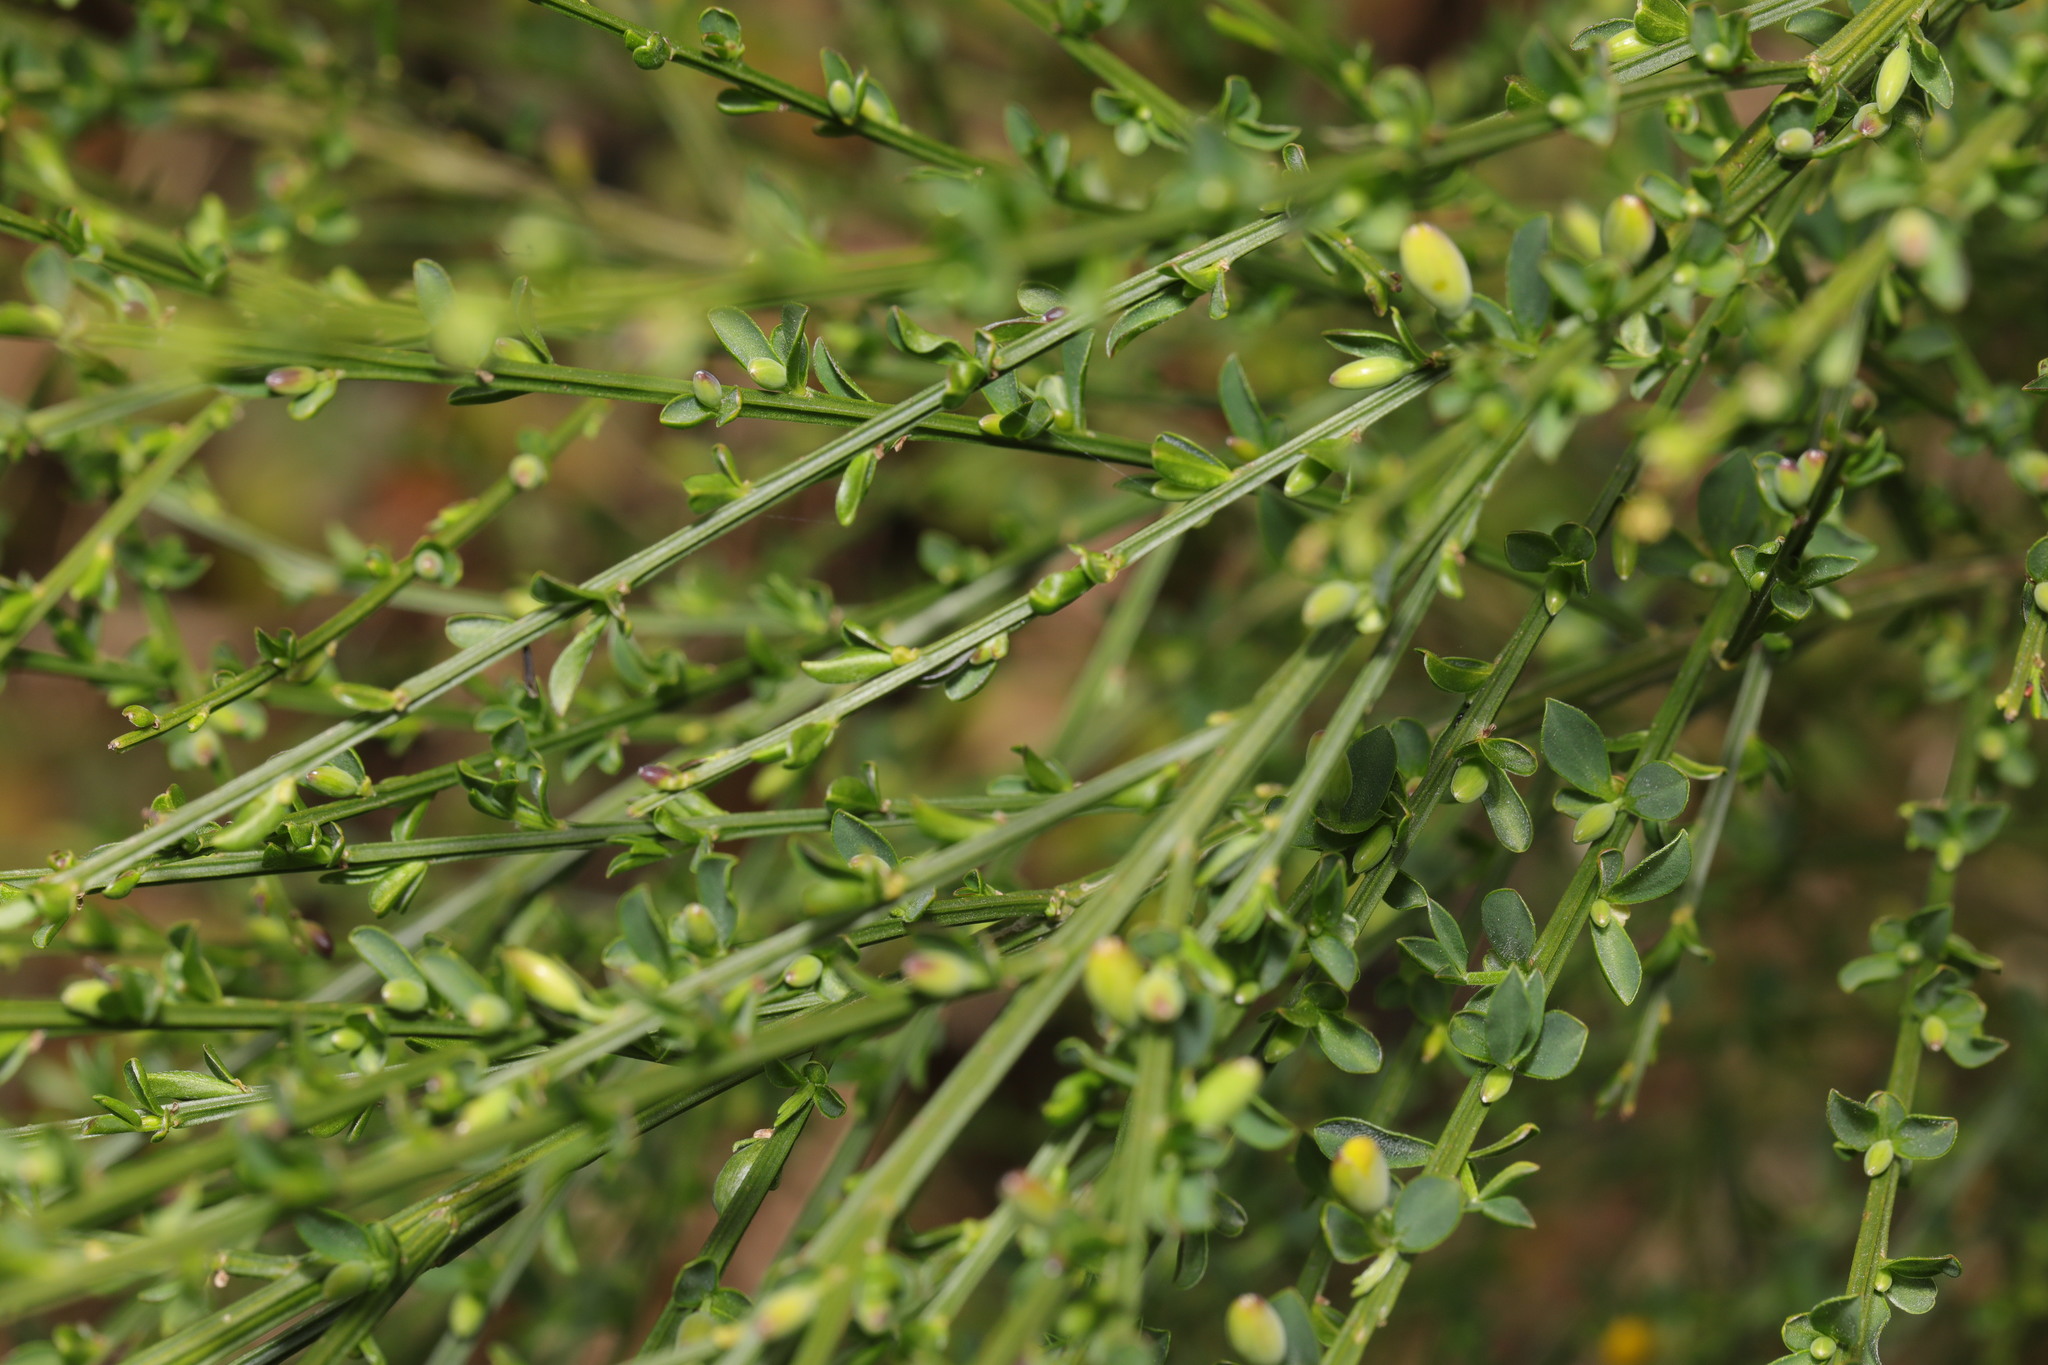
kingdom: Plantae
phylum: Tracheophyta
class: Magnoliopsida
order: Fabales
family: Fabaceae
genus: Cytisus
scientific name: Cytisus scoparius
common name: Scotch broom
